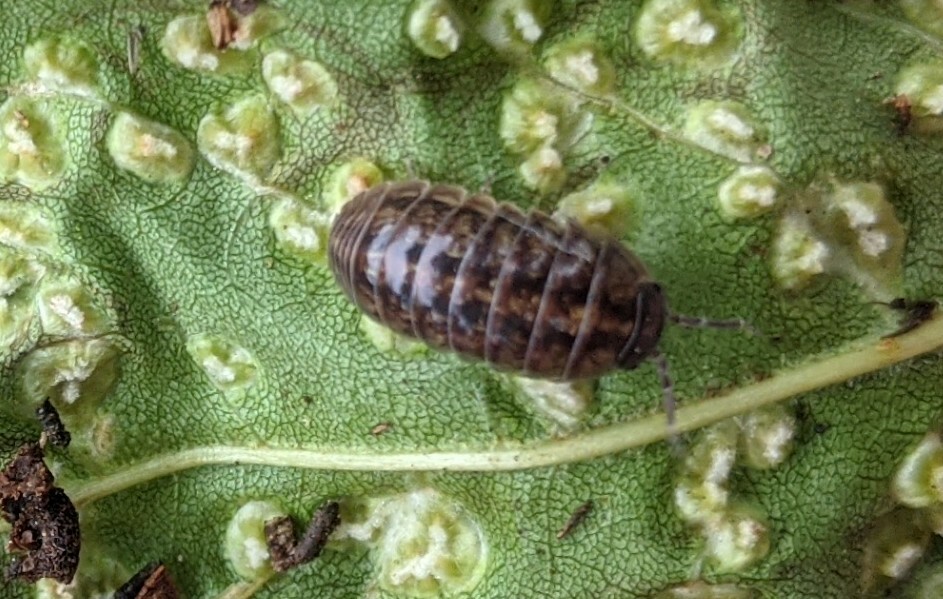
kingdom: Animalia
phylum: Arthropoda
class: Malacostraca
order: Isopoda
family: Armadillidiidae
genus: Armadillidium
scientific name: Armadillidium vulgare
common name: Common pill woodlouse
